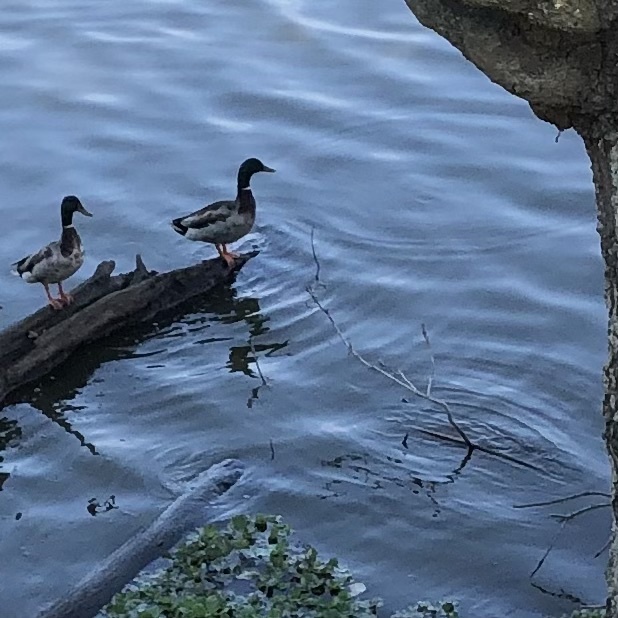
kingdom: Animalia
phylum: Chordata
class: Aves
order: Anseriformes
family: Anatidae
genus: Anas
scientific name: Anas platyrhynchos
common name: Mallard
